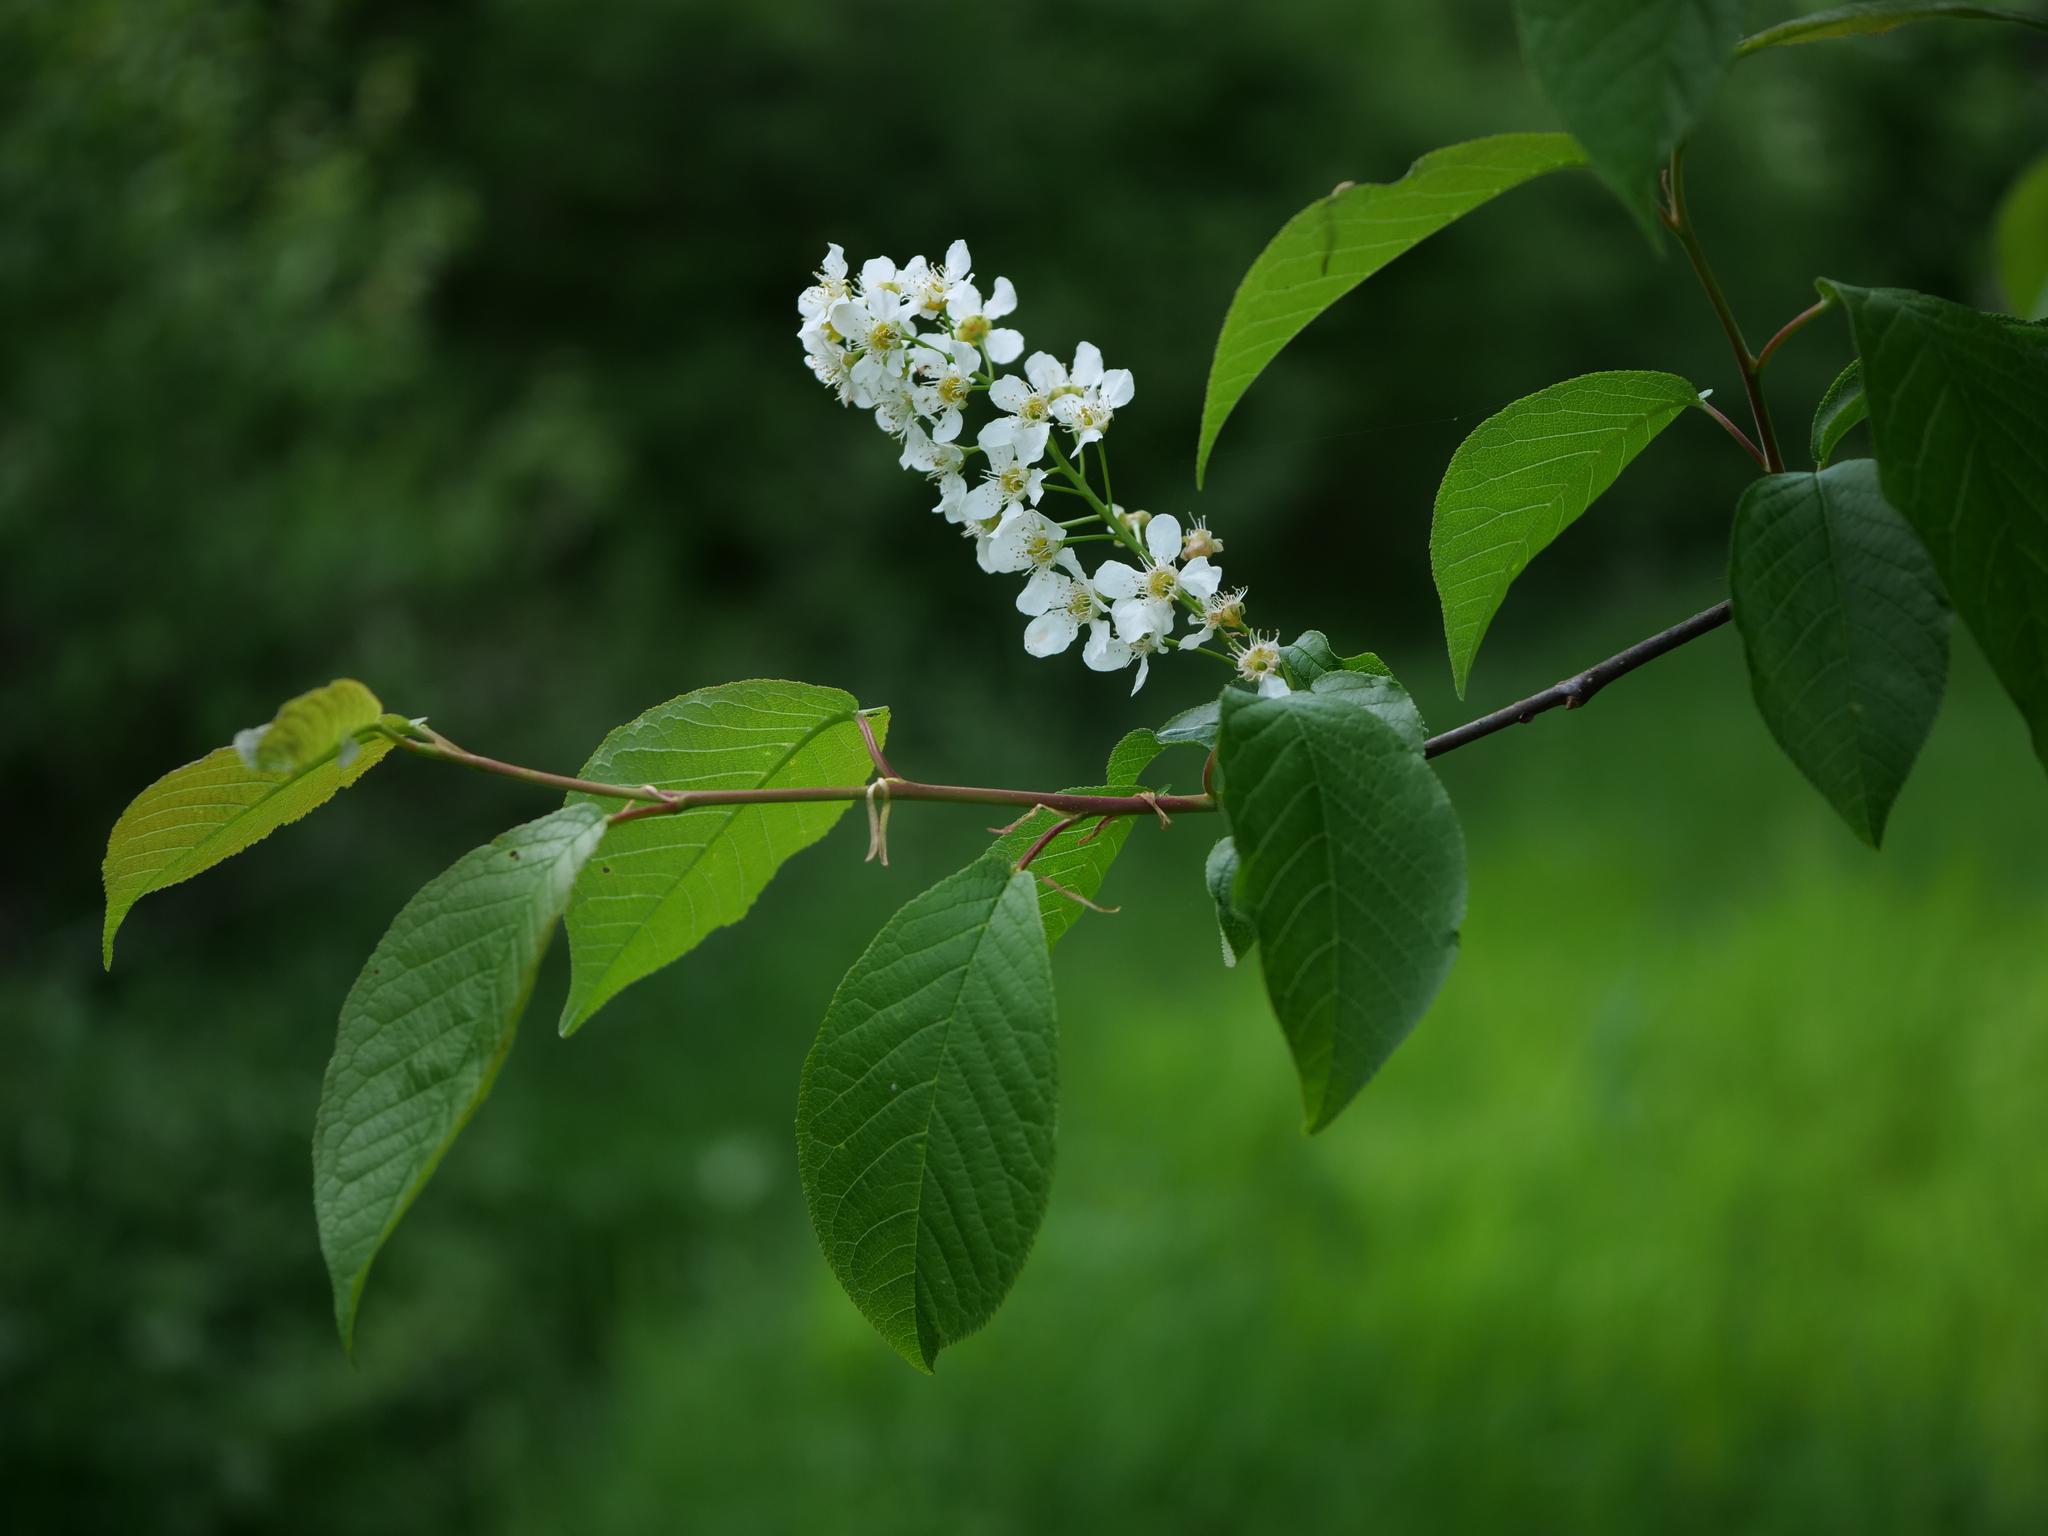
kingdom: Plantae
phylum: Tracheophyta
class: Magnoliopsida
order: Rosales
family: Rosaceae
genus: Prunus
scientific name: Prunus padus
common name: Bird cherry
